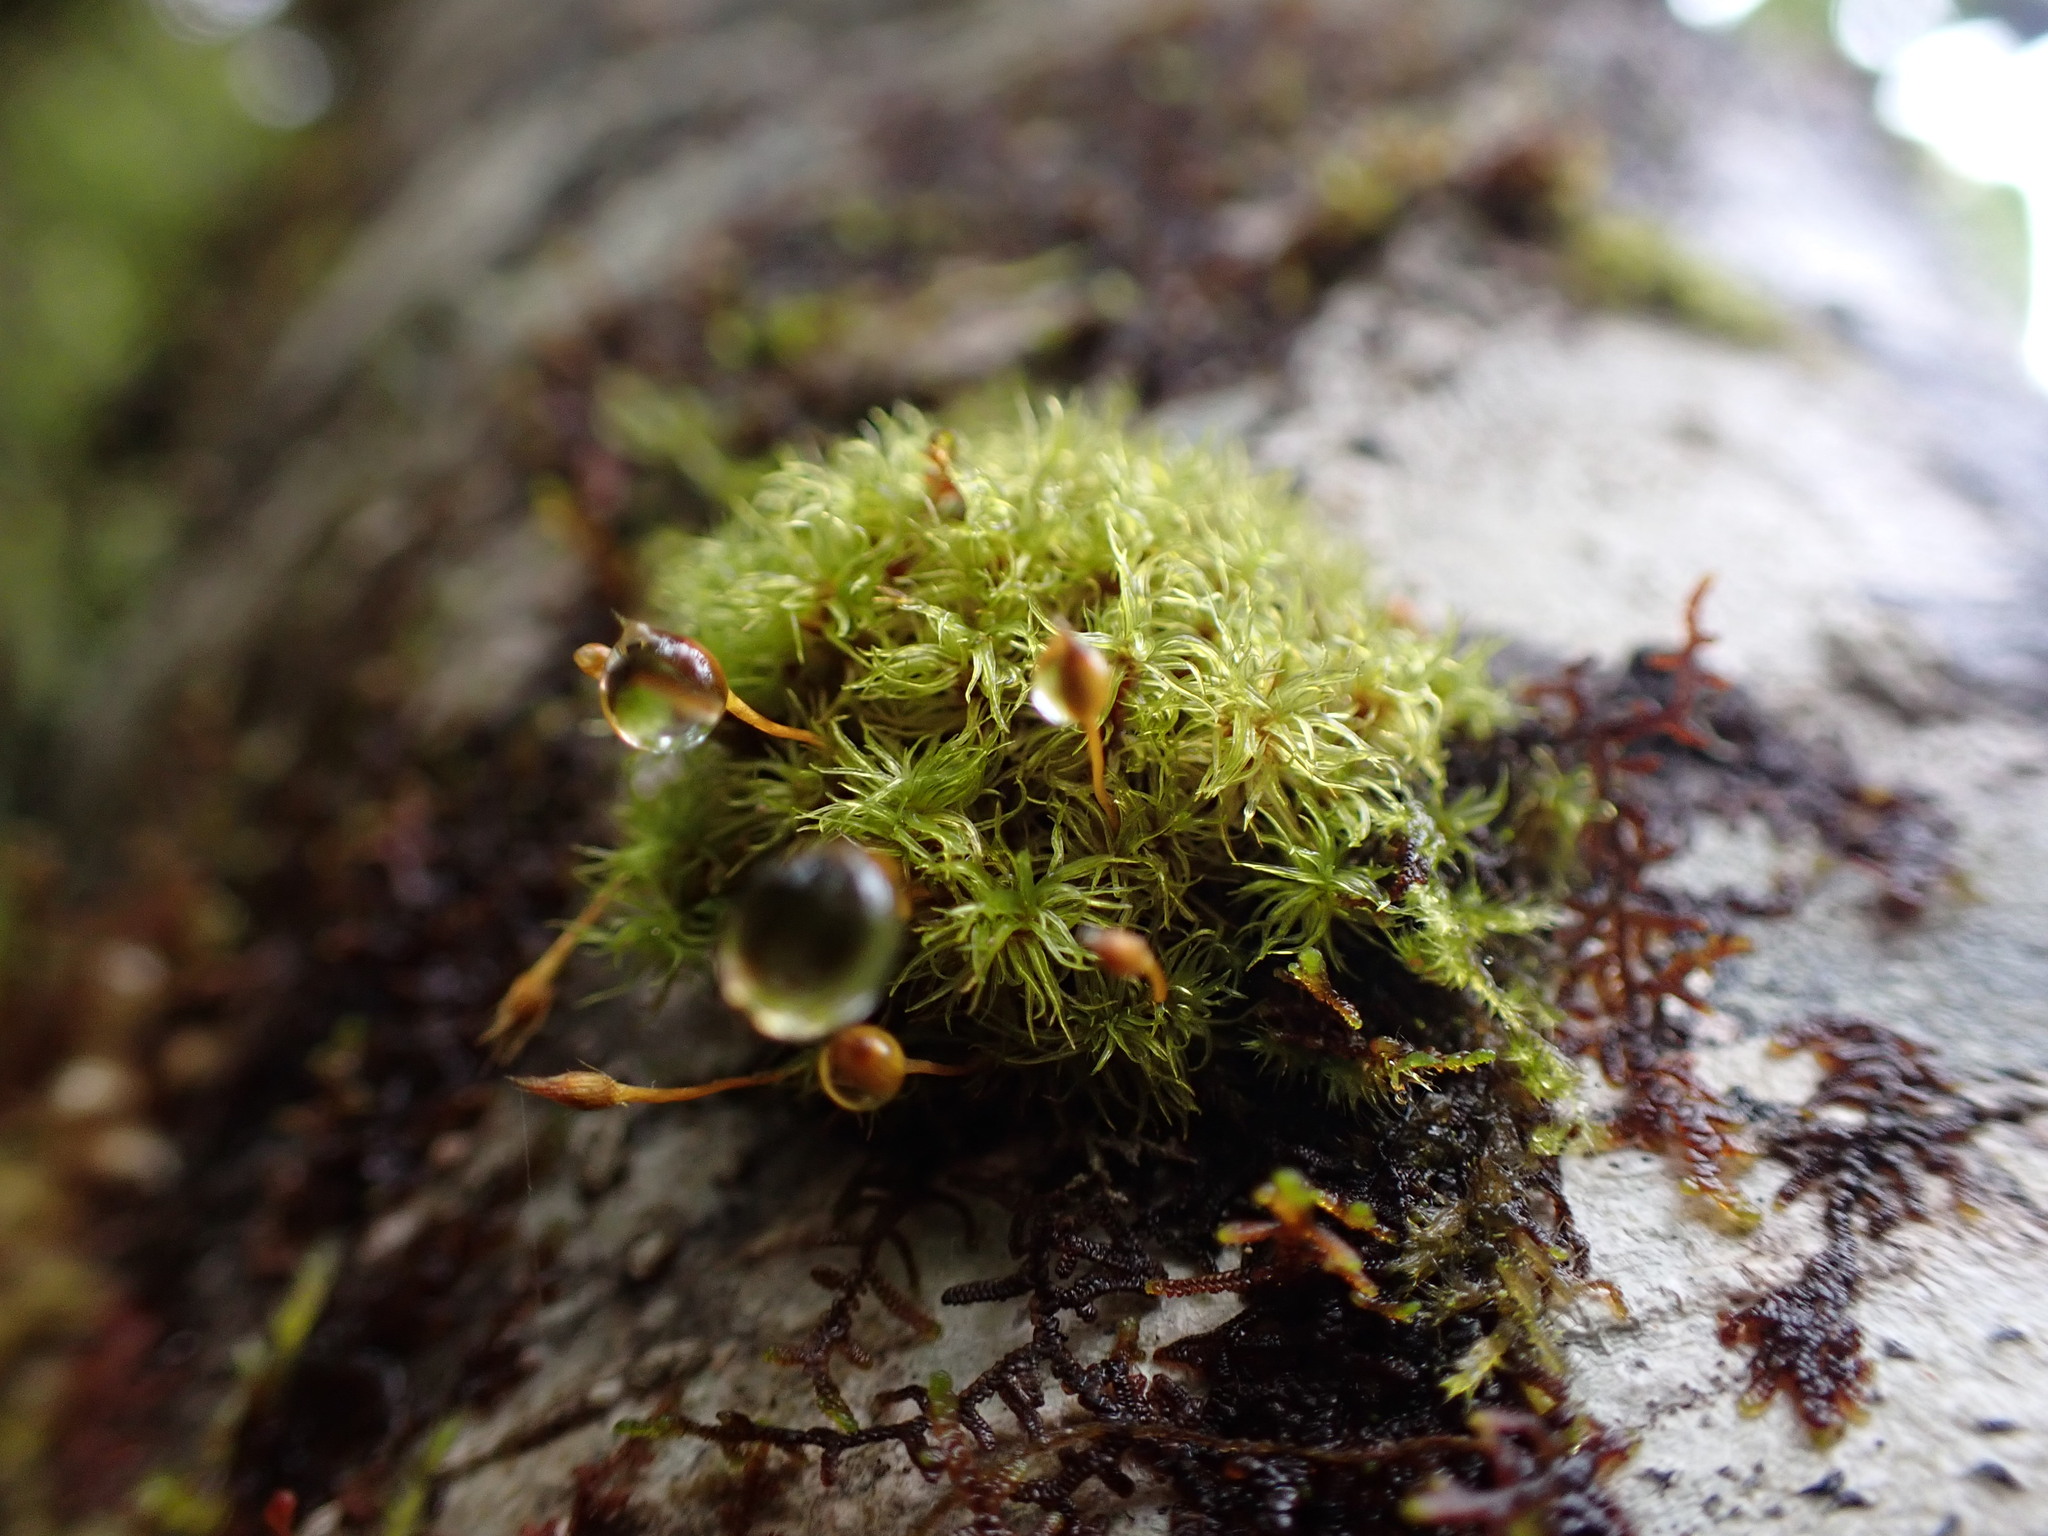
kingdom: Plantae
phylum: Bryophyta
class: Bryopsida
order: Orthotrichales
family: Orthotrichaceae
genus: Ulota
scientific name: Ulota obtusiuscula
